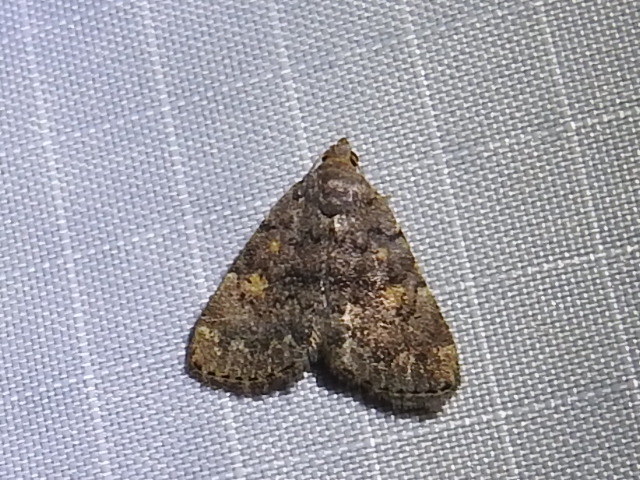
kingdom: Animalia
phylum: Arthropoda
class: Insecta
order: Lepidoptera
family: Erebidae
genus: Idia
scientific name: Idia aemula
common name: Common idia moth
